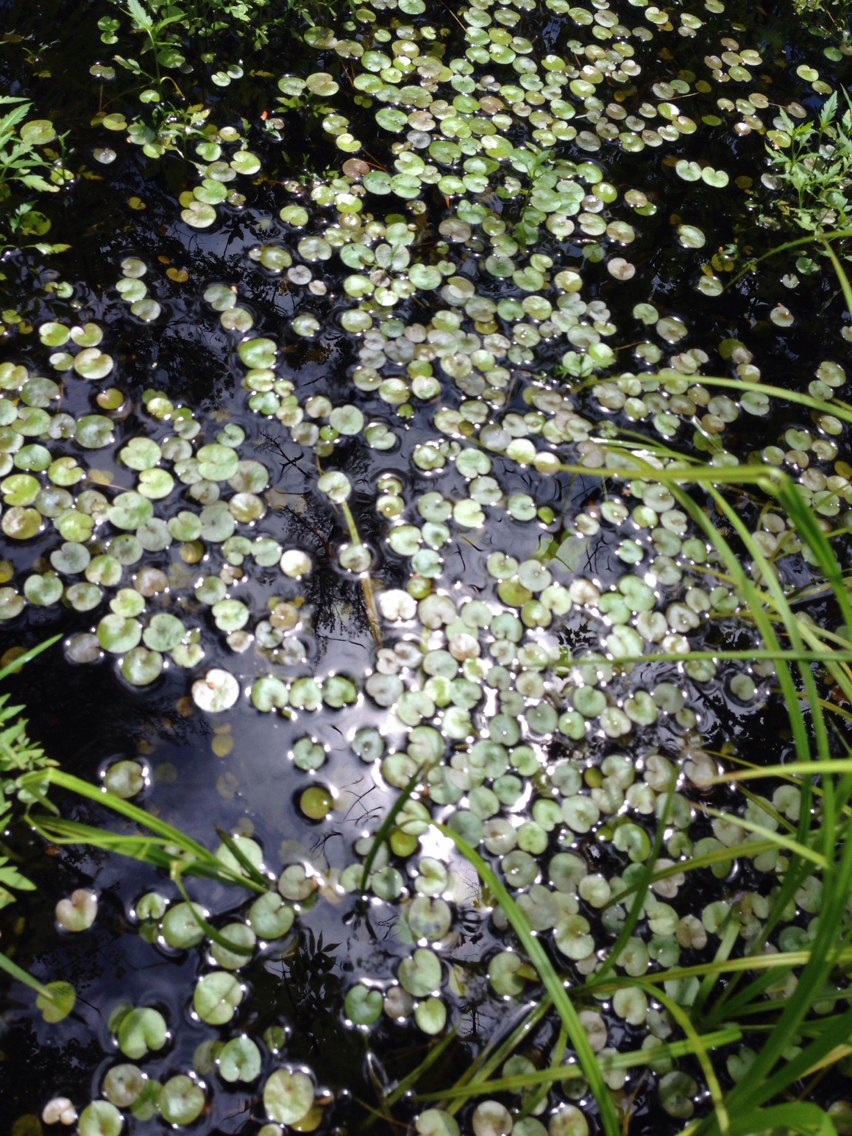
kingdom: Plantae
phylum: Tracheophyta
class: Liliopsida
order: Alismatales
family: Hydrocharitaceae
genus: Hydrocharis
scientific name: Hydrocharis morsus-ranae
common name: Frogbit
